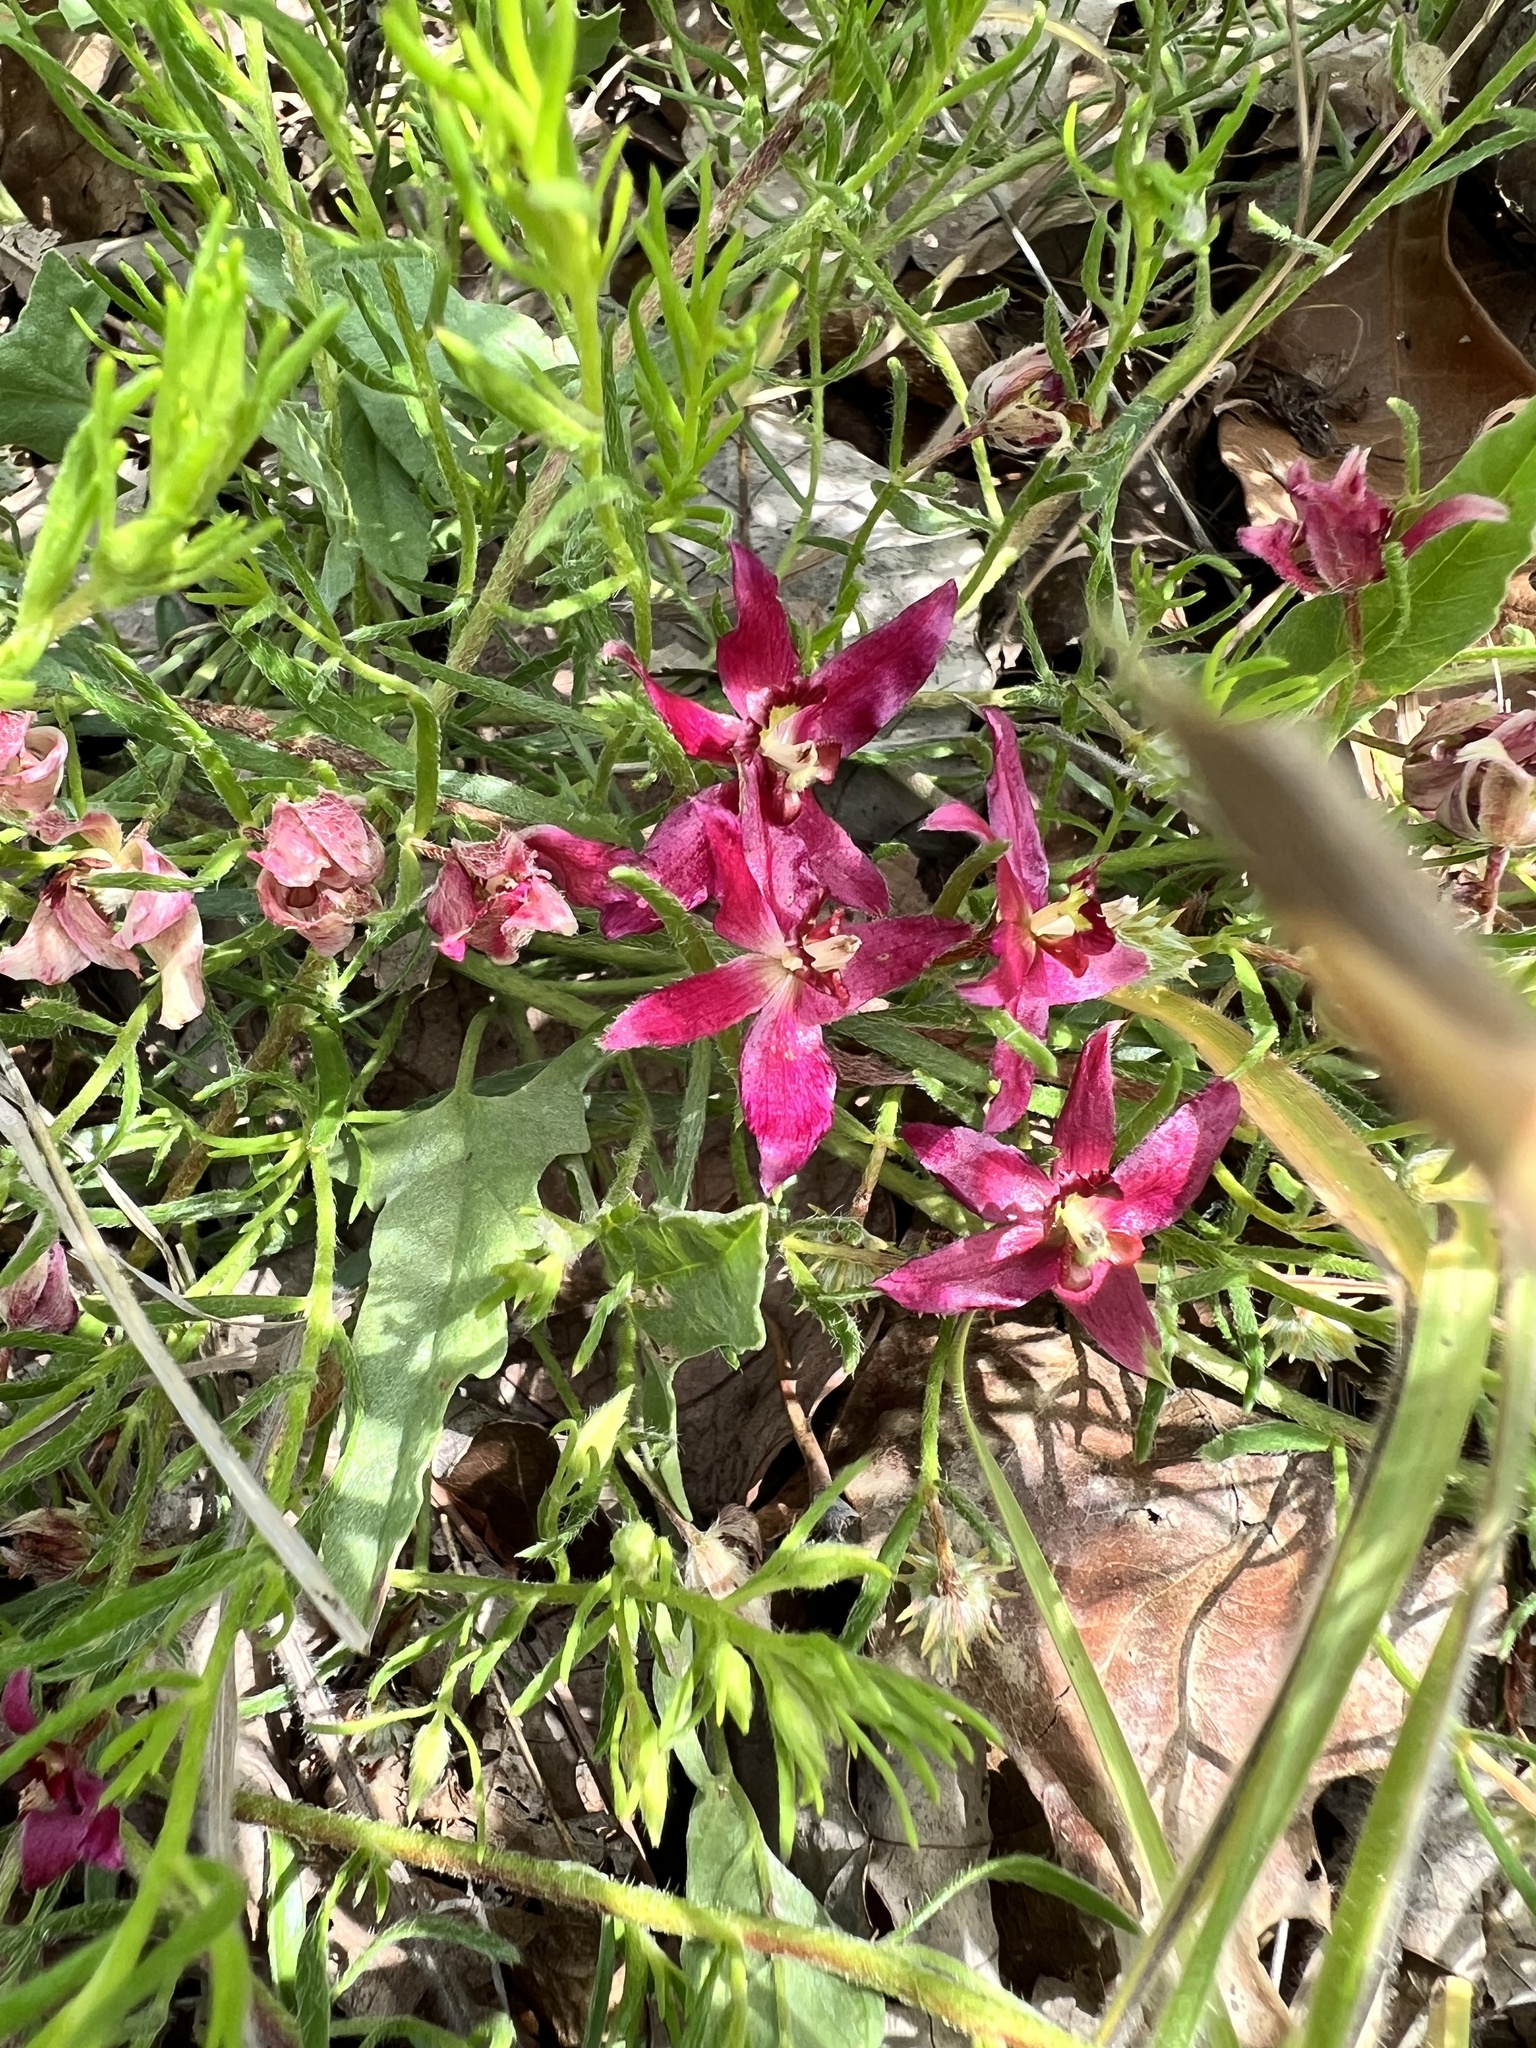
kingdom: Plantae
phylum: Tracheophyta
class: Magnoliopsida
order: Zygophyllales
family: Krameriaceae
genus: Krameria
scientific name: Krameria lanceolata
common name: Ratany
